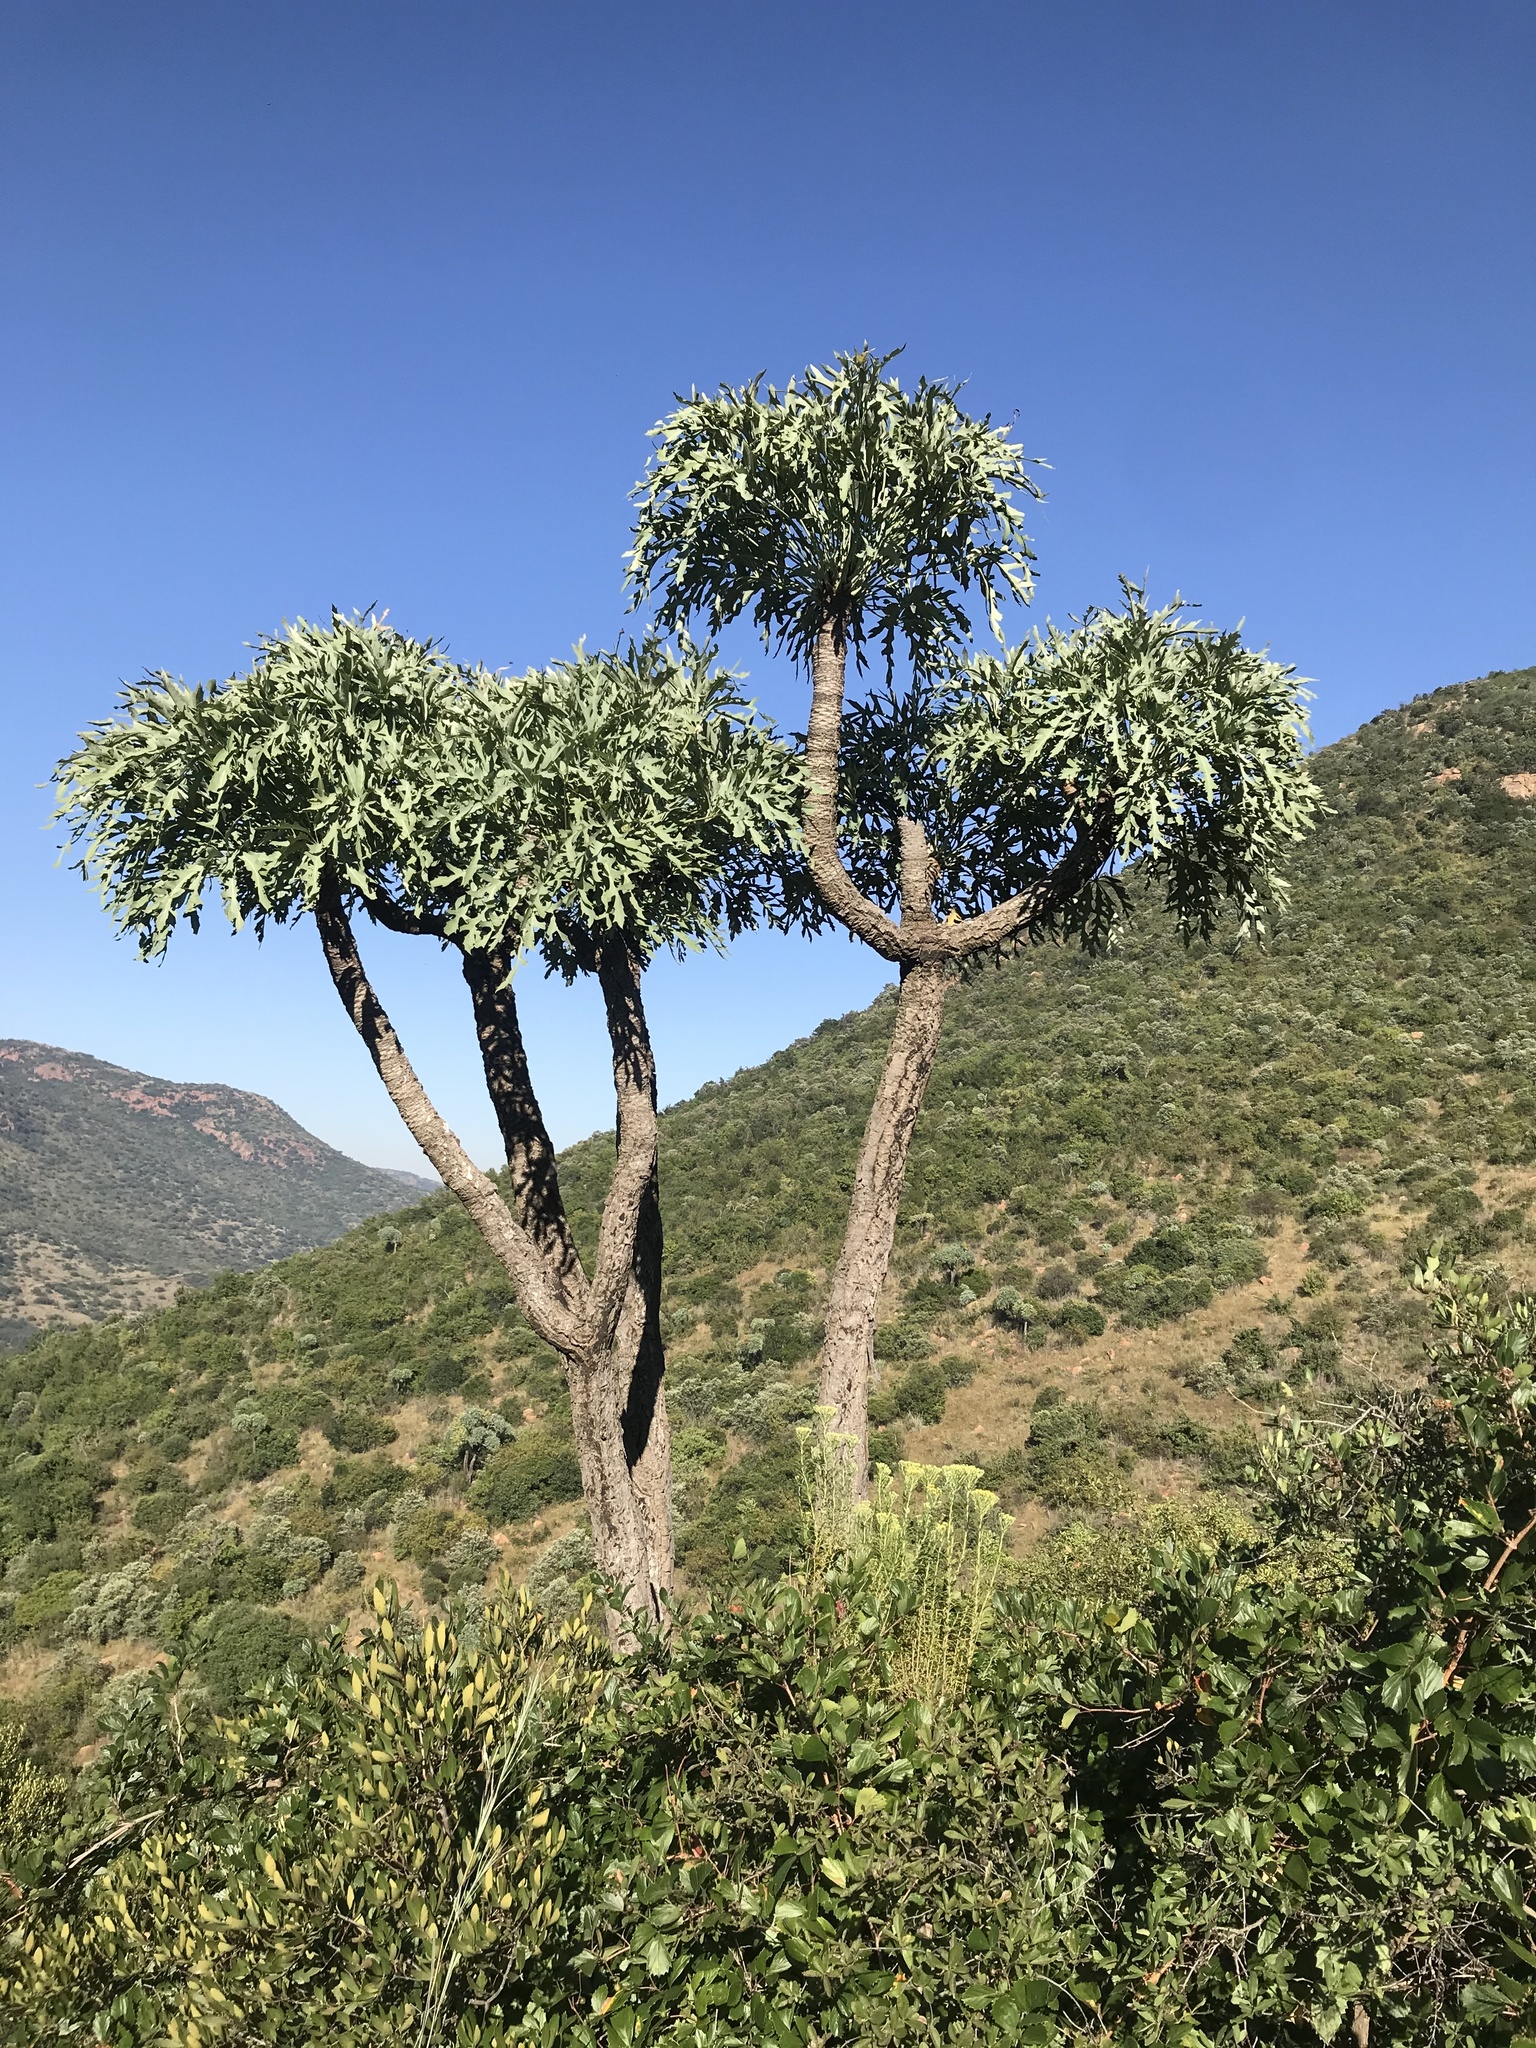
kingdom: Plantae
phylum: Tracheophyta
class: Magnoliopsida
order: Apiales
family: Araliaceae
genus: Cussonia
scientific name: Cussonia paniculata
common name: Cabbagetree
